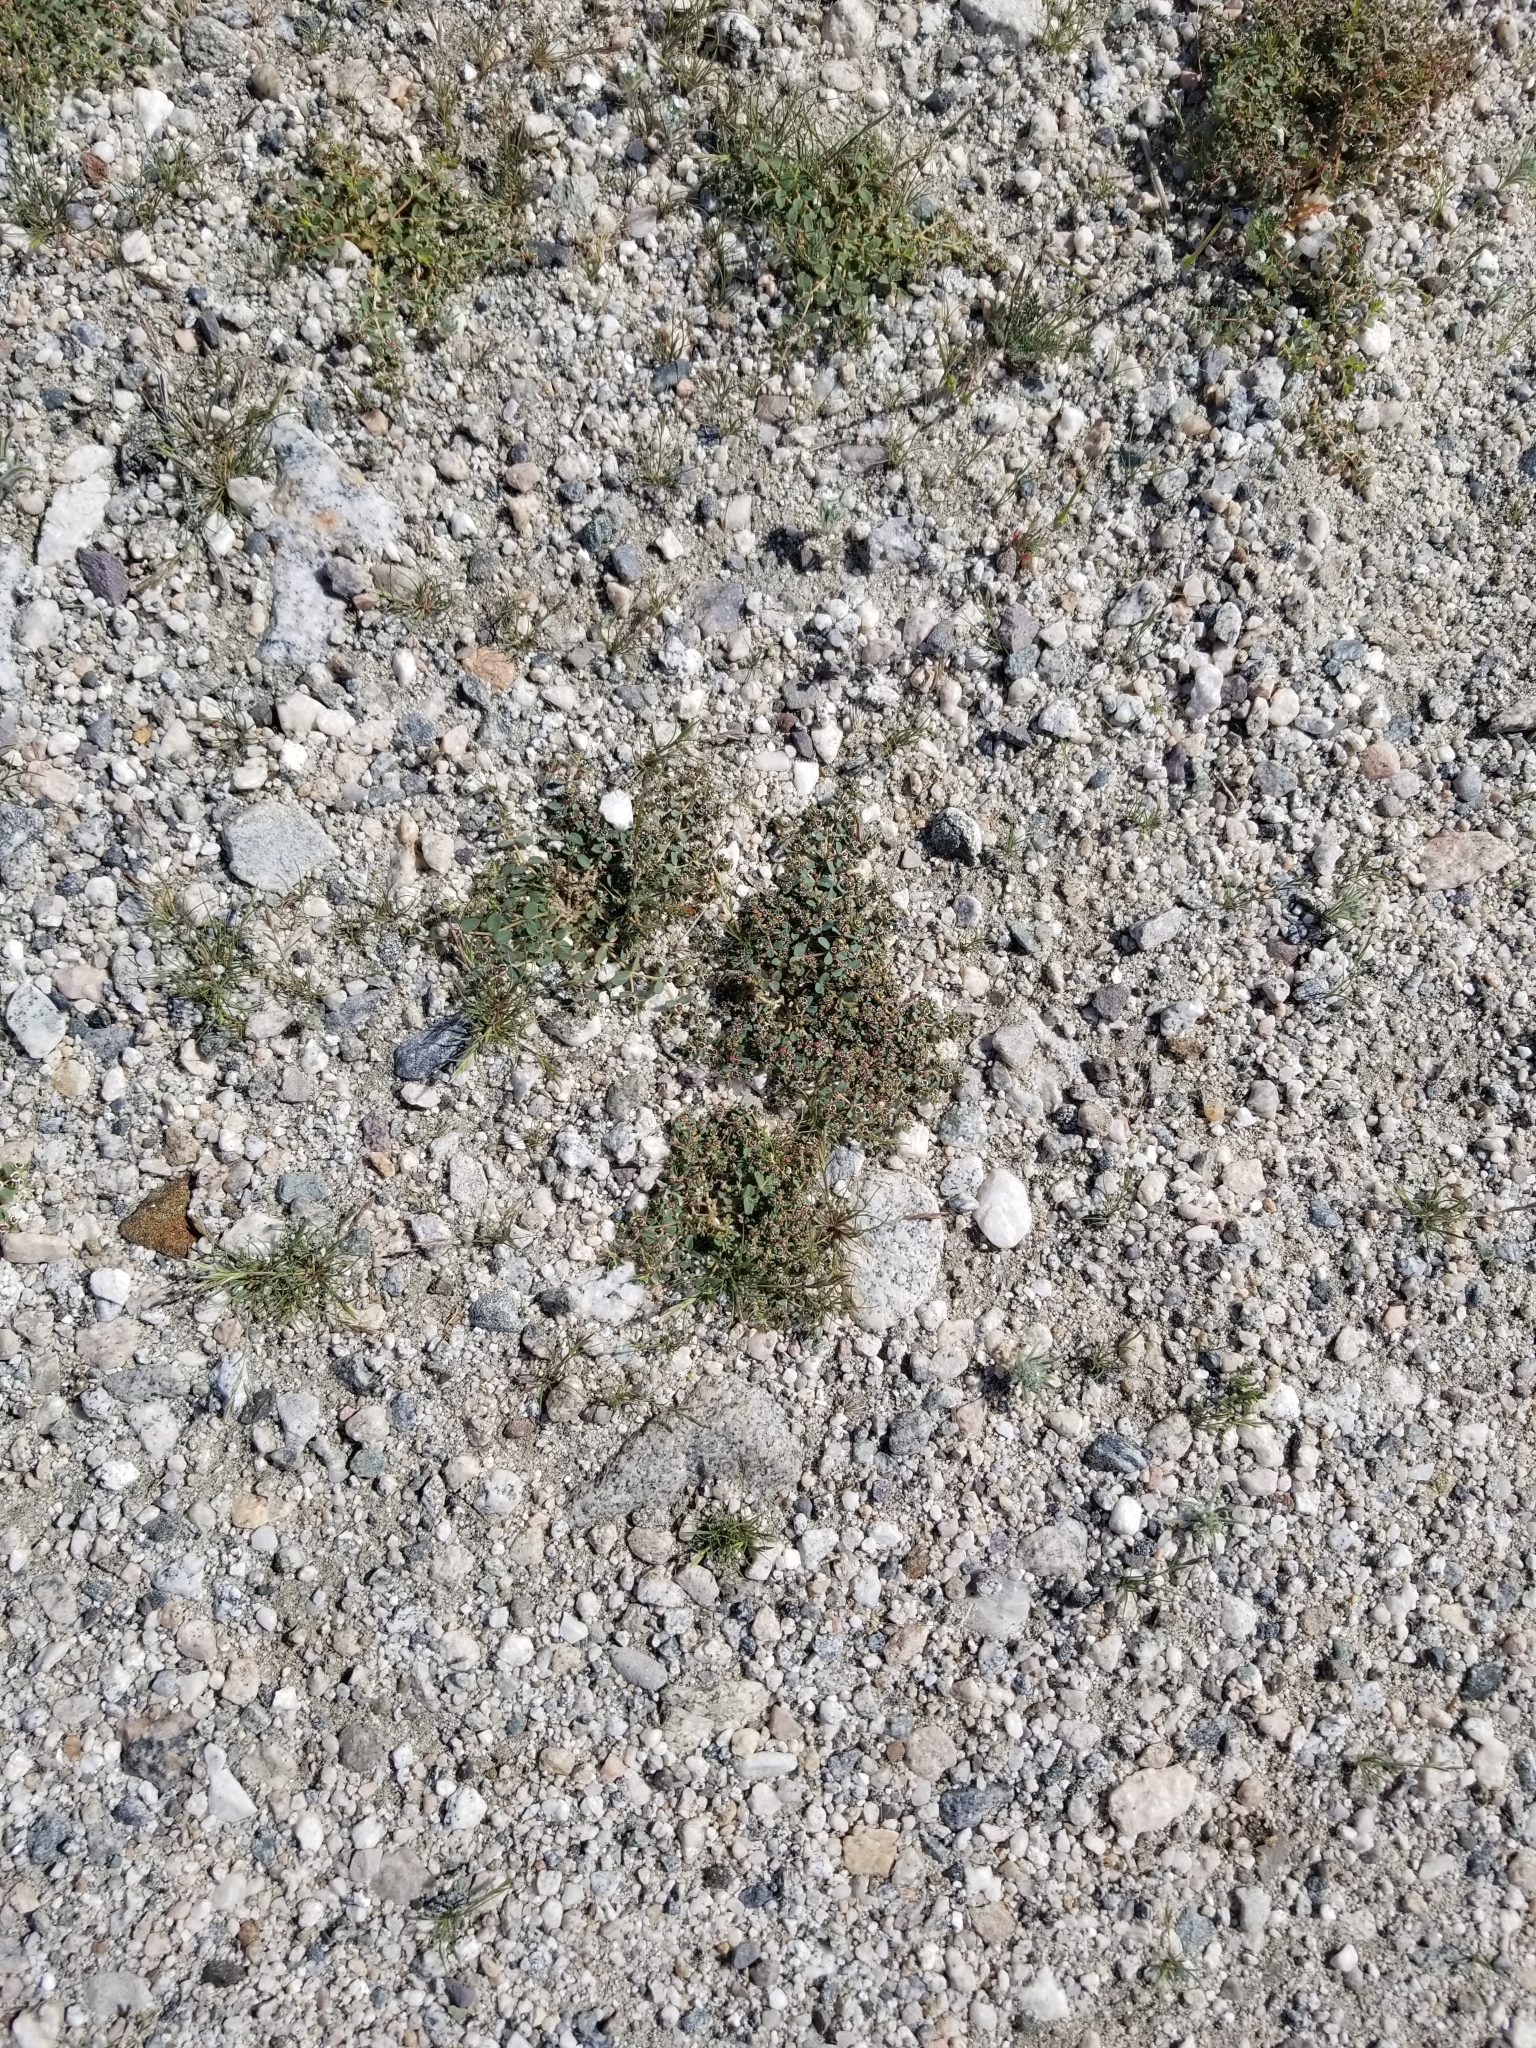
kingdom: Plantae
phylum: Tracheophyta
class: Magnoliopsida
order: Malpighiales
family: Euphorbiaceae
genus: Euphorbia
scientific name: Euphorbia polycarpa
